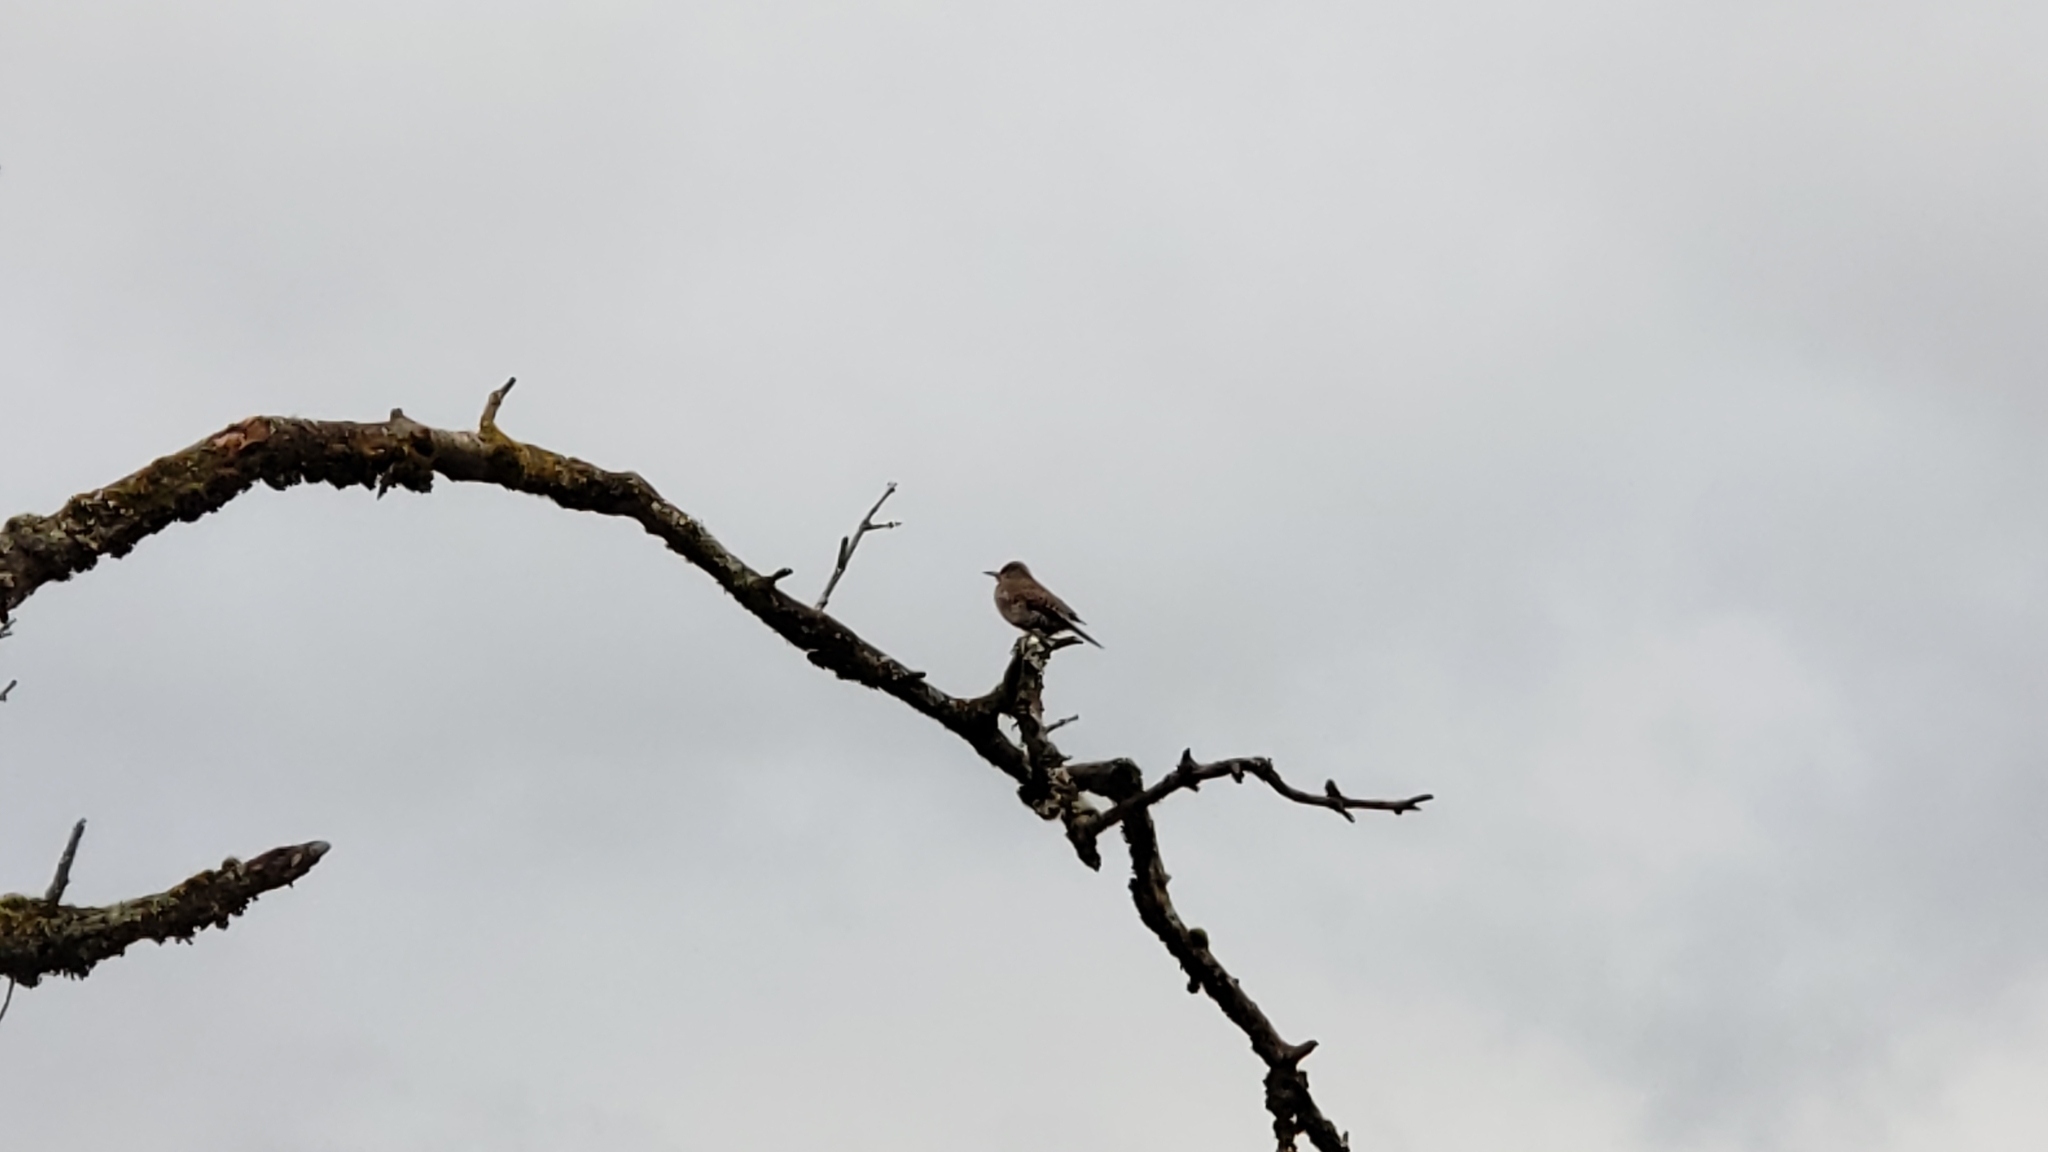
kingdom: Animalia
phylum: Chordata
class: Aves
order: Piciformes
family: Picidae
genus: Colaptes
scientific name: Colaptes auratus
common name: Northern flicker
